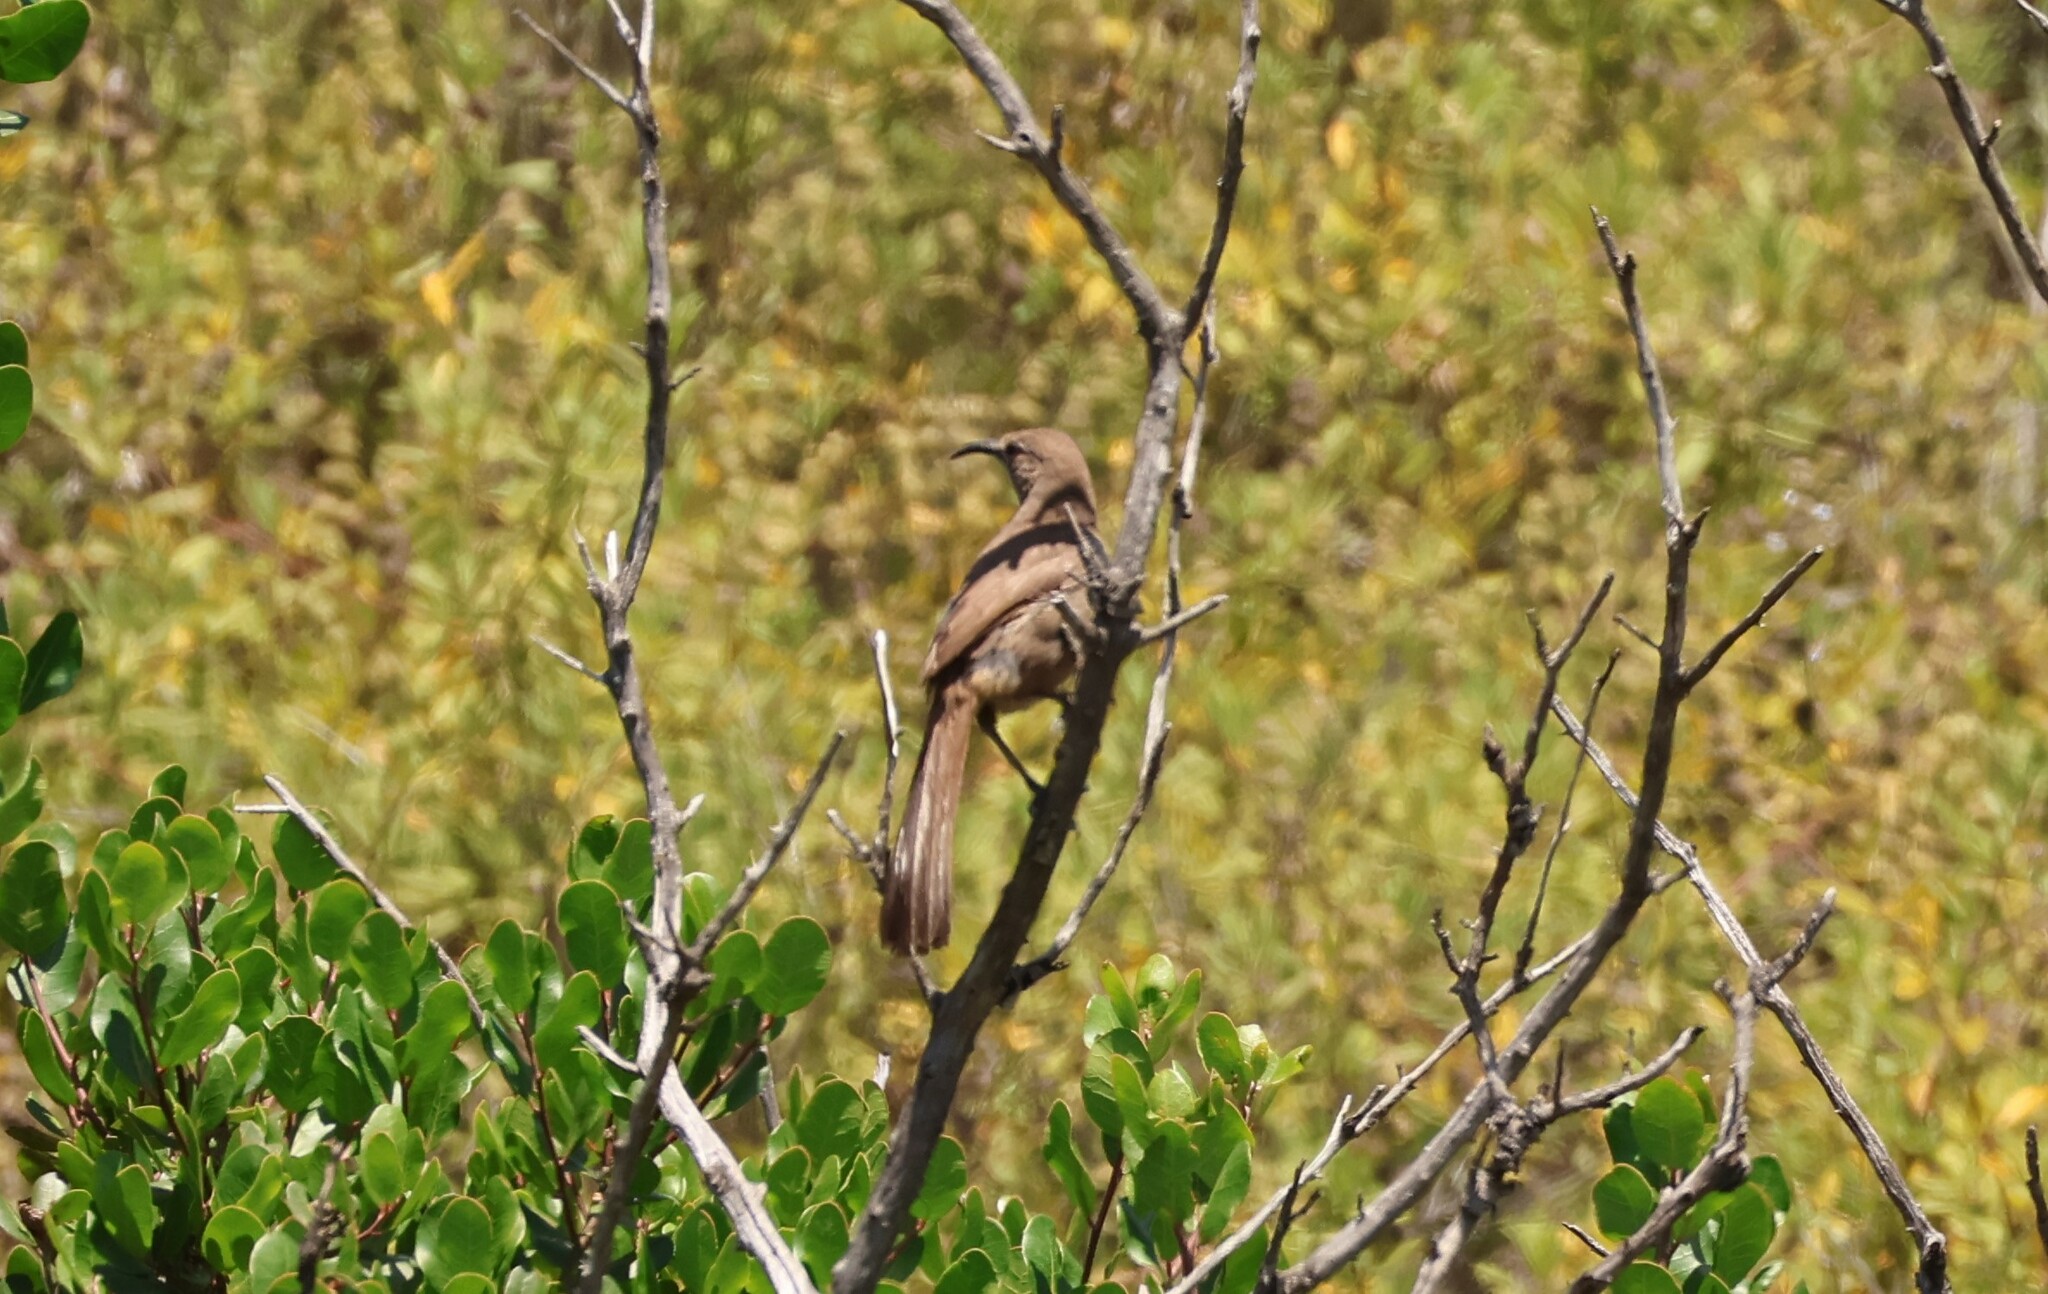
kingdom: Animalia
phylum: Chordata
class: Aves
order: Passeriformes
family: Mimidae
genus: Toxostoma
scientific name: Toxostoma redivivum
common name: California thrasher
